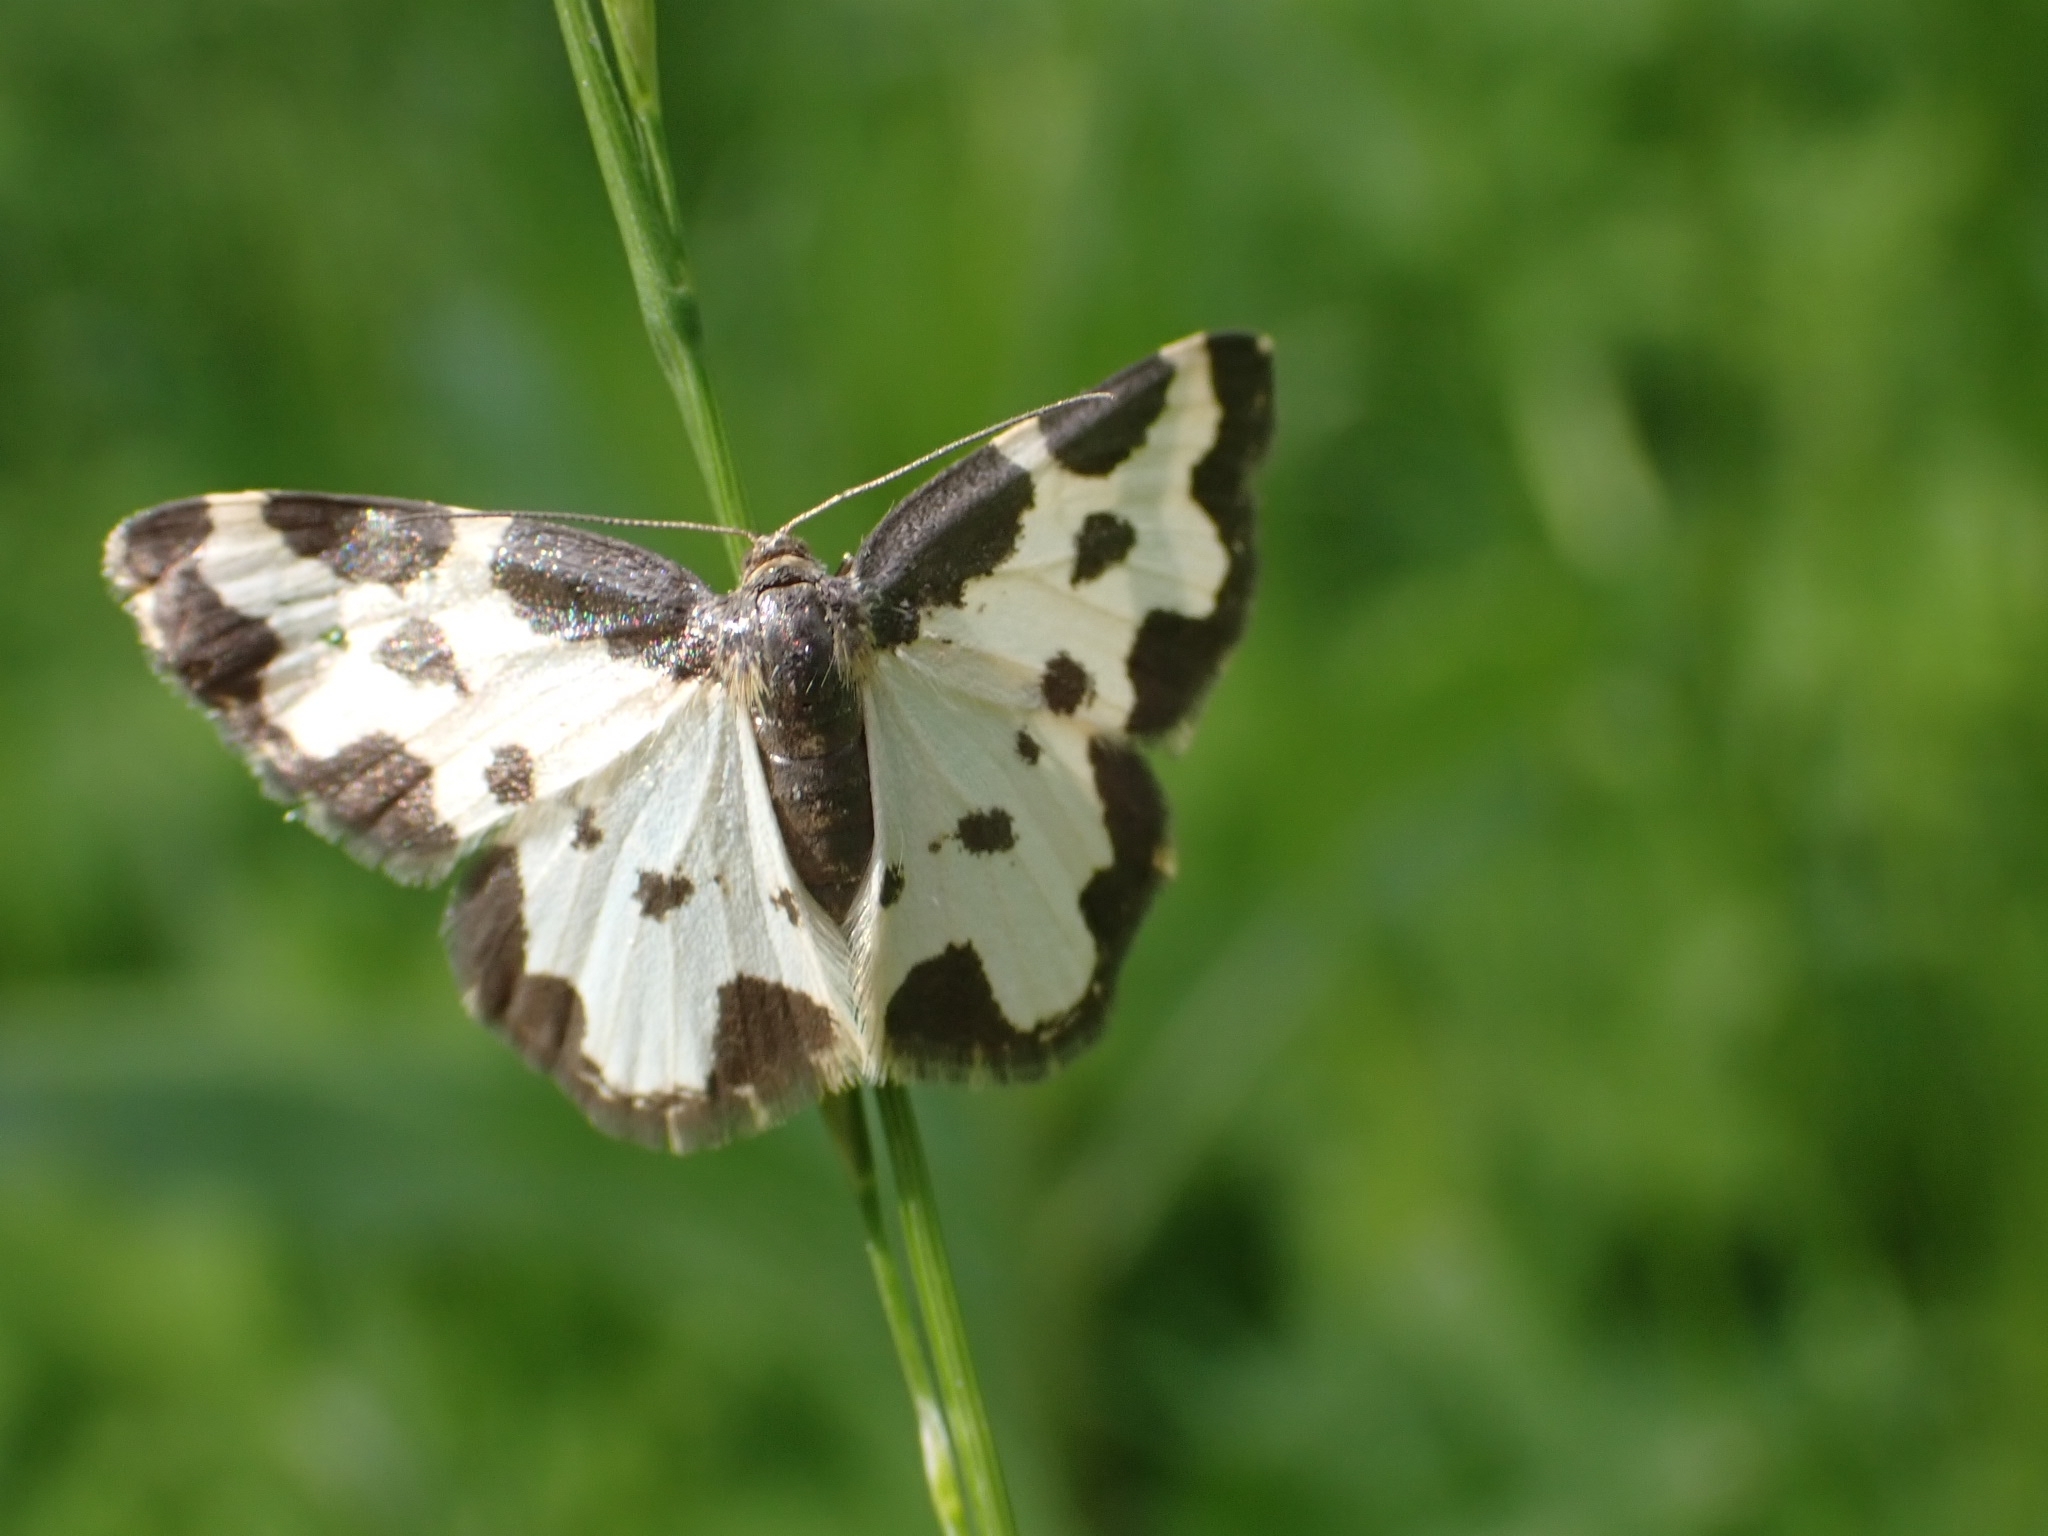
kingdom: Animalia
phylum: Arthropoda
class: Insecta
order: Lepidoptera
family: Geometridae
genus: Lomaspilis
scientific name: Lomaspilis marginata
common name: Clouded border
